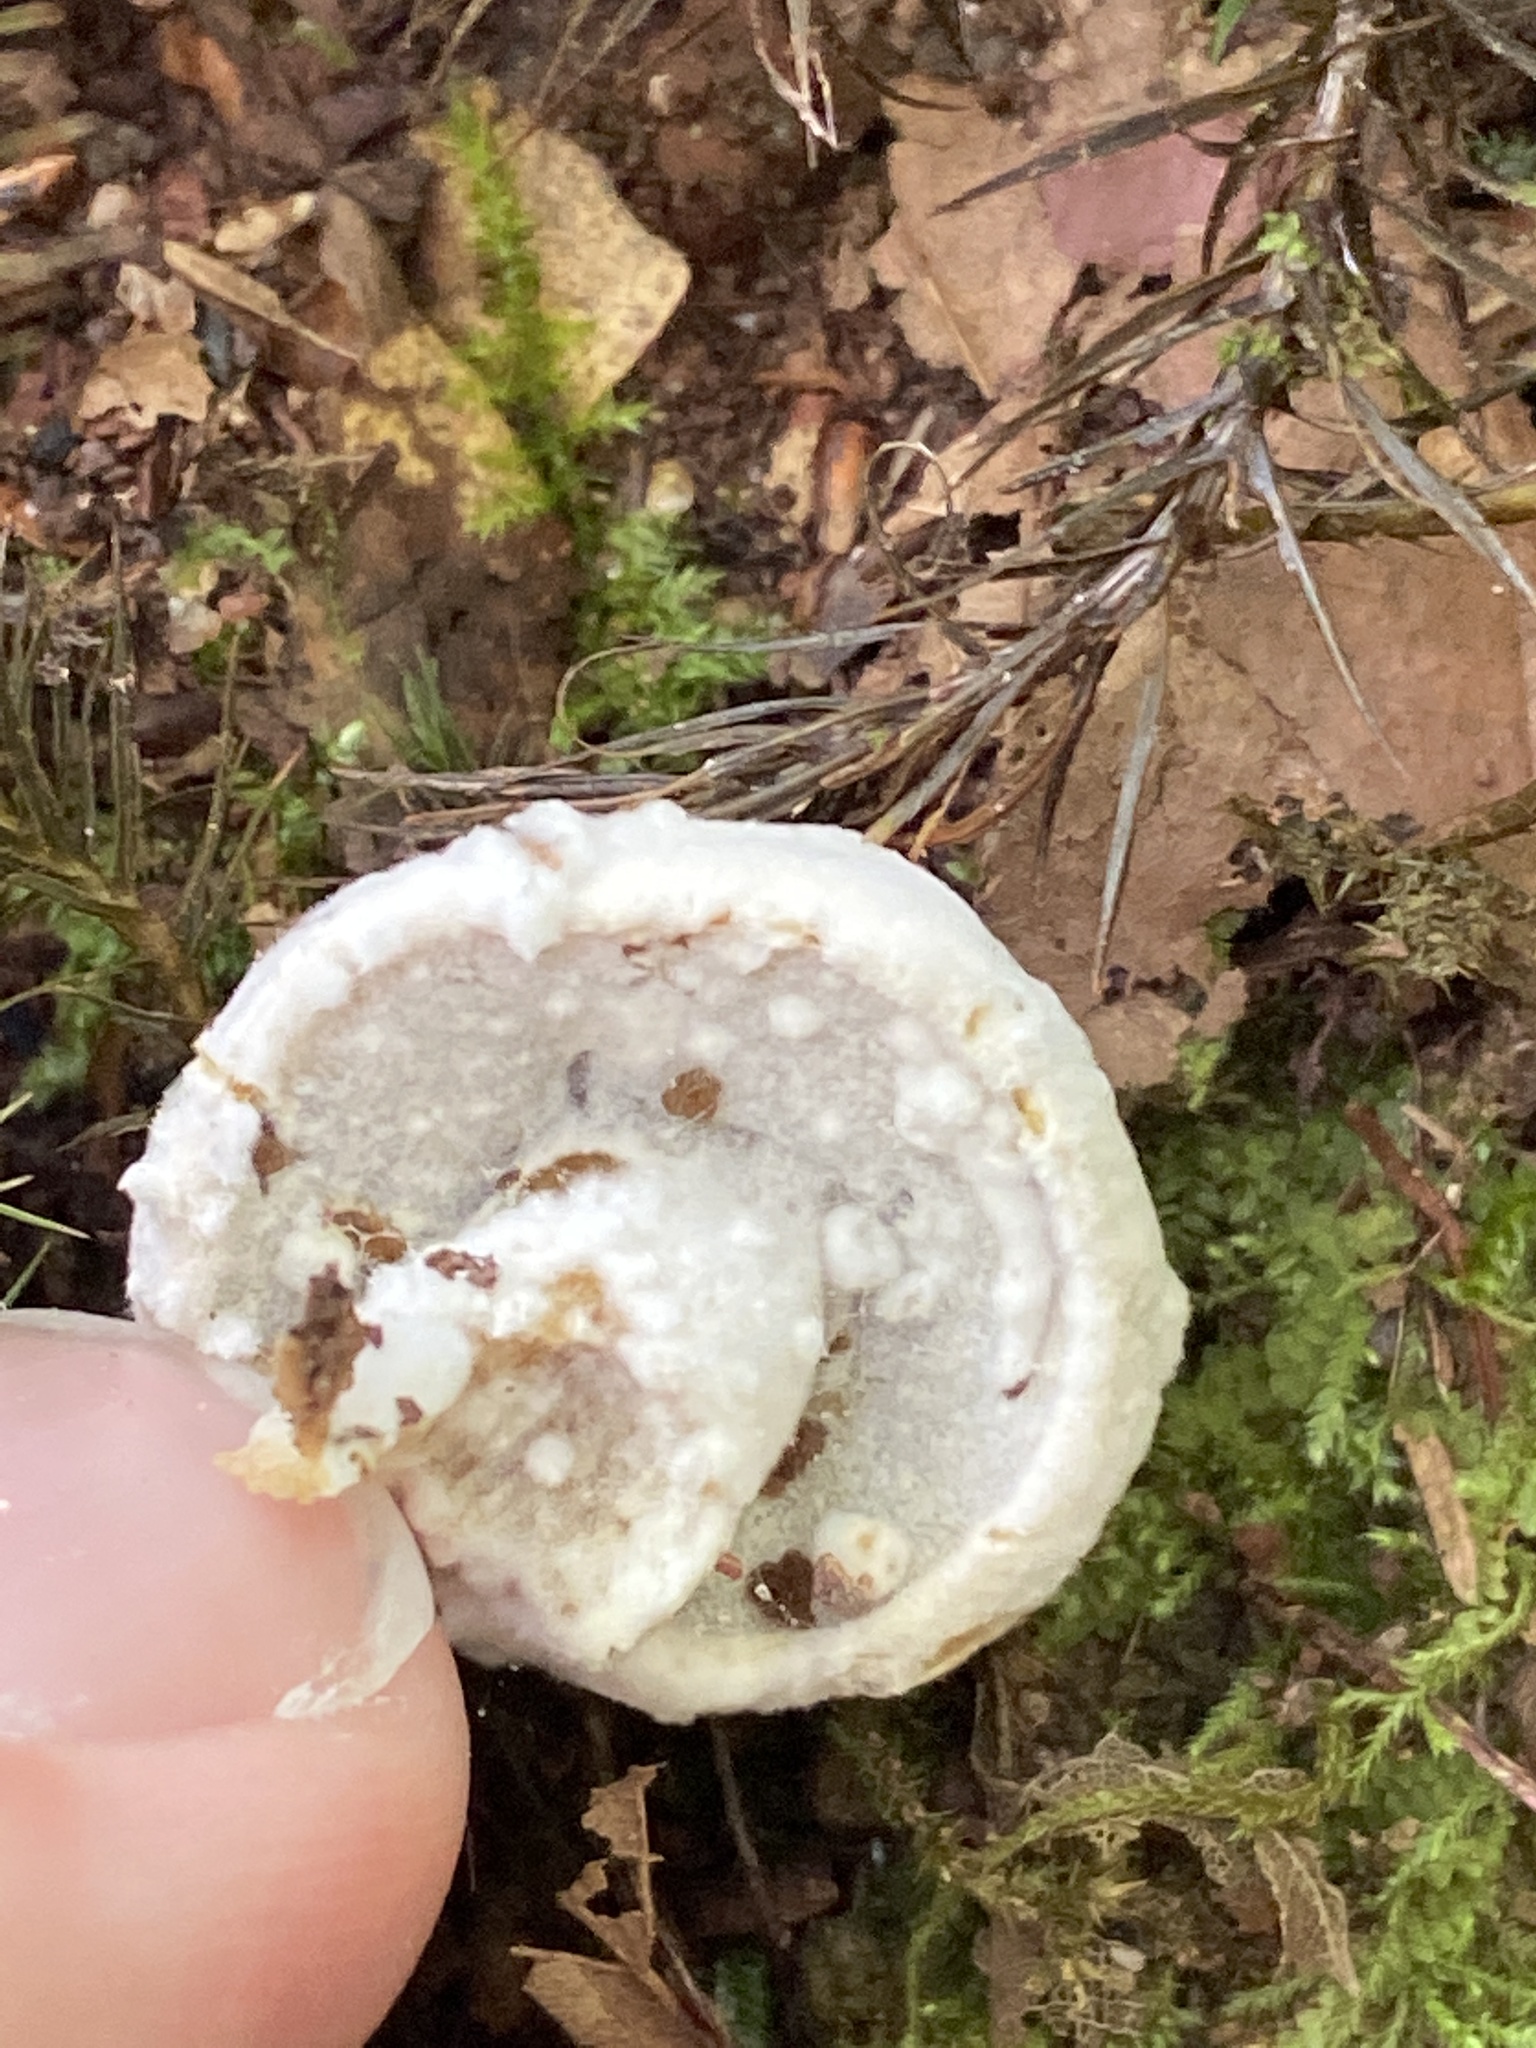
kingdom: Fungi
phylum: Ascomycota
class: Sordariomycetes
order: Hypocreales
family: Hypocreaceae
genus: Hypomyces
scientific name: Hypomyces chrysospermus
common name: Bolete mould
